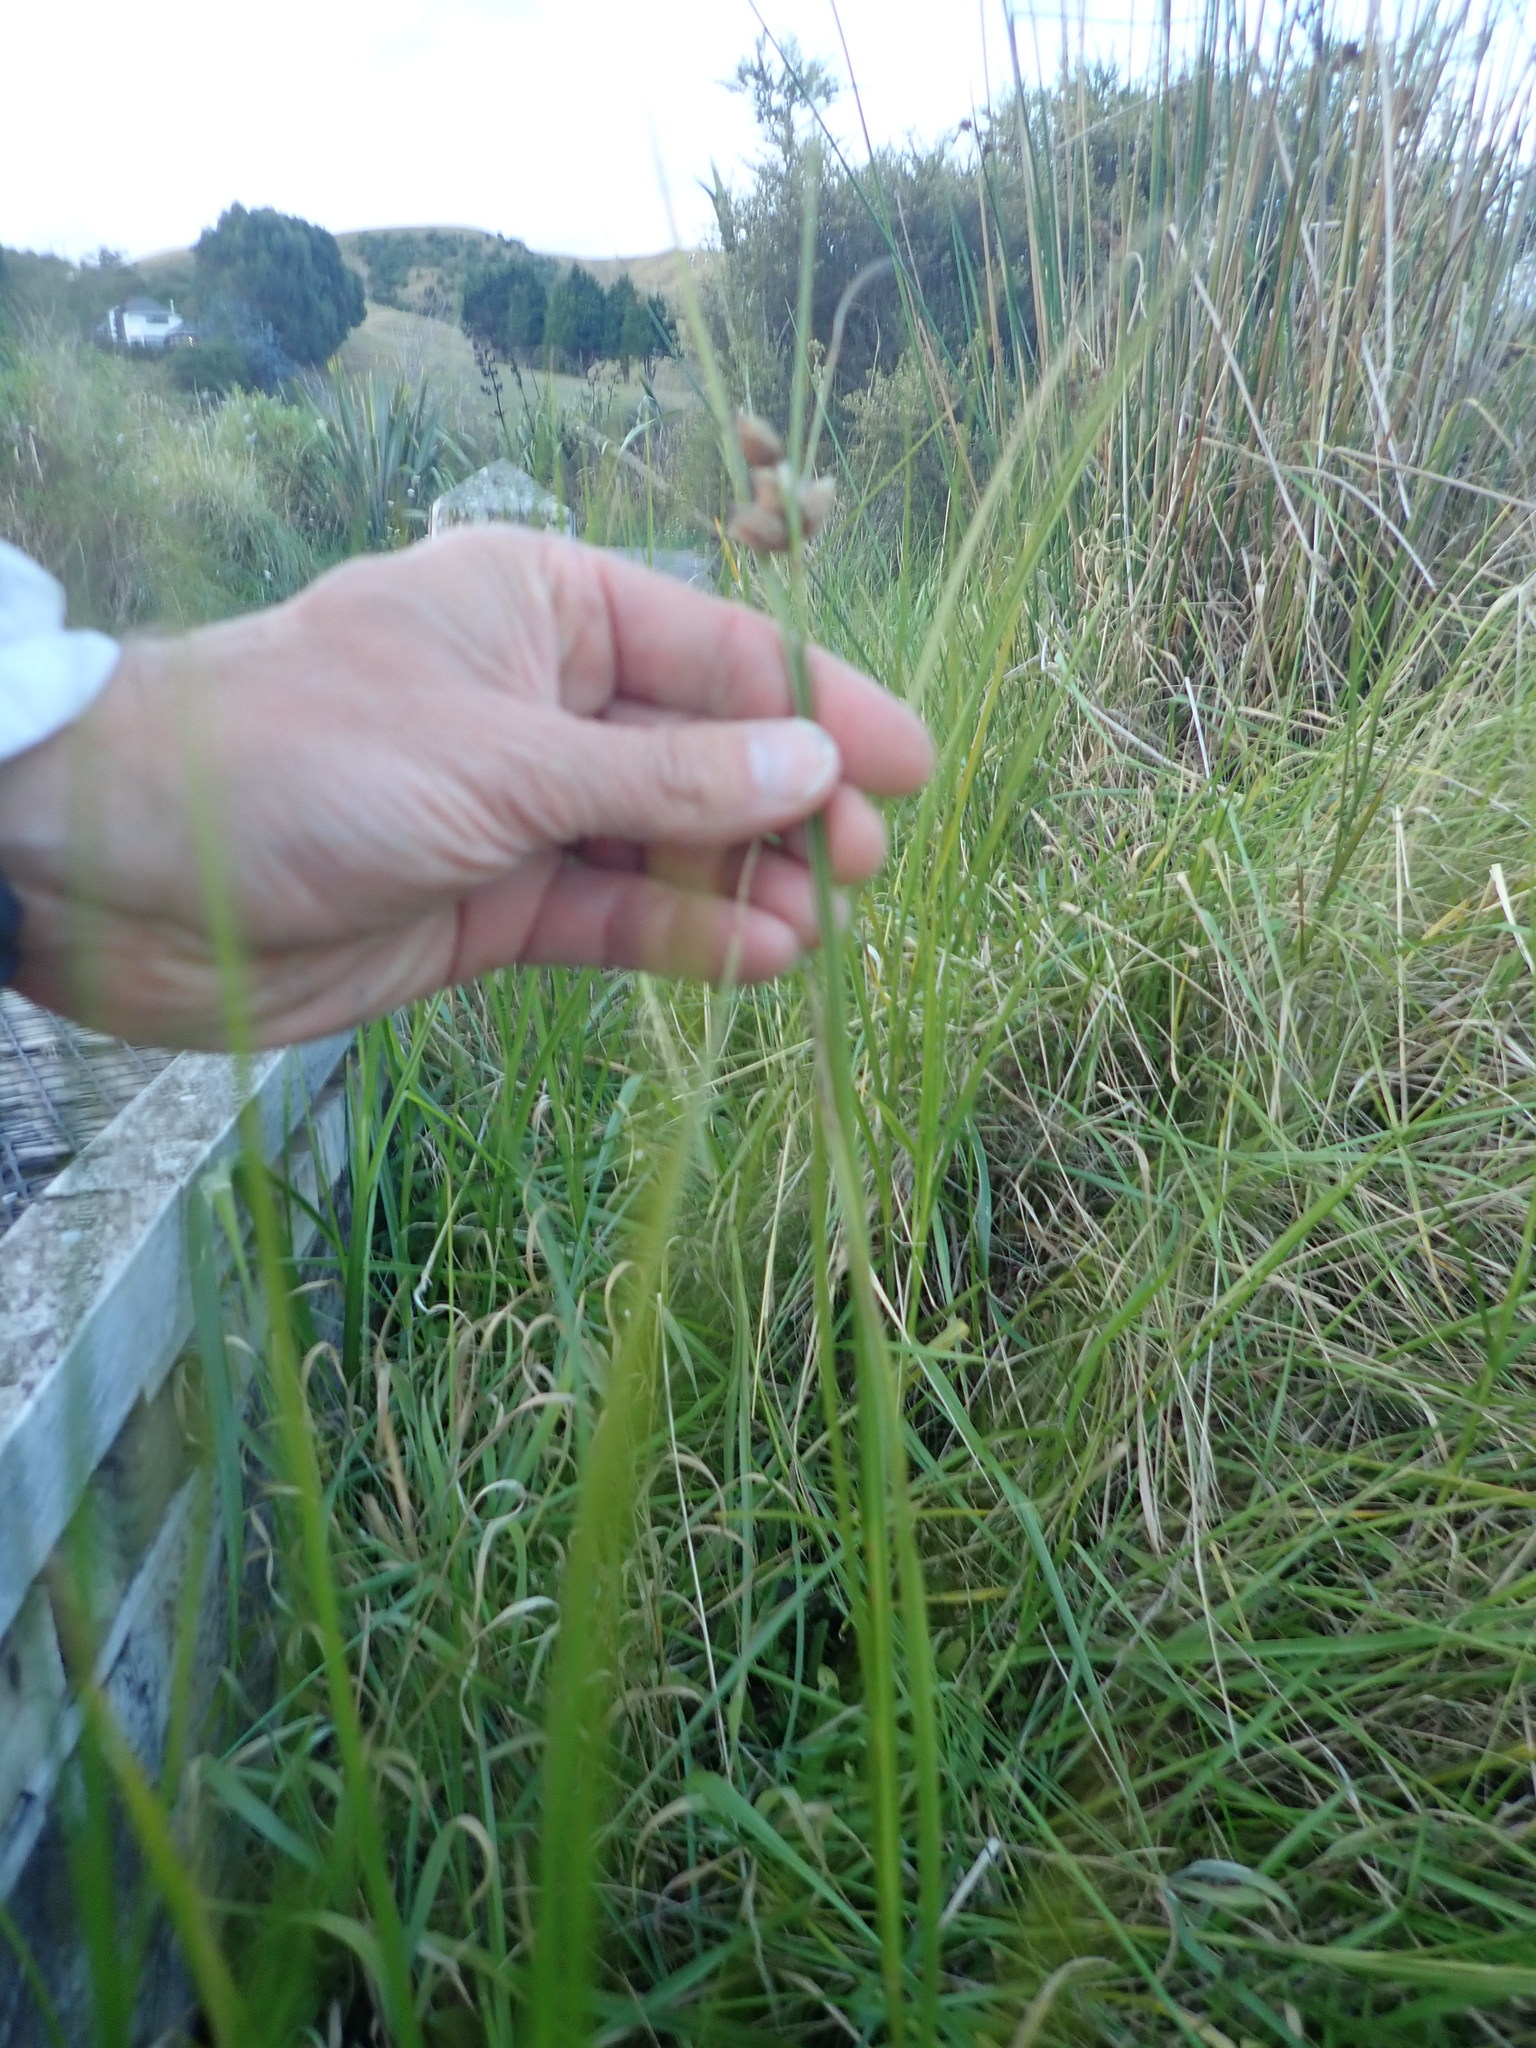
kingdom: Plantae
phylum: Tracheophyta
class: Liliopsida
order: Poales
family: Cyperaceae
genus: Bolboschoenus
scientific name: Bolboschoenus caldwellii
